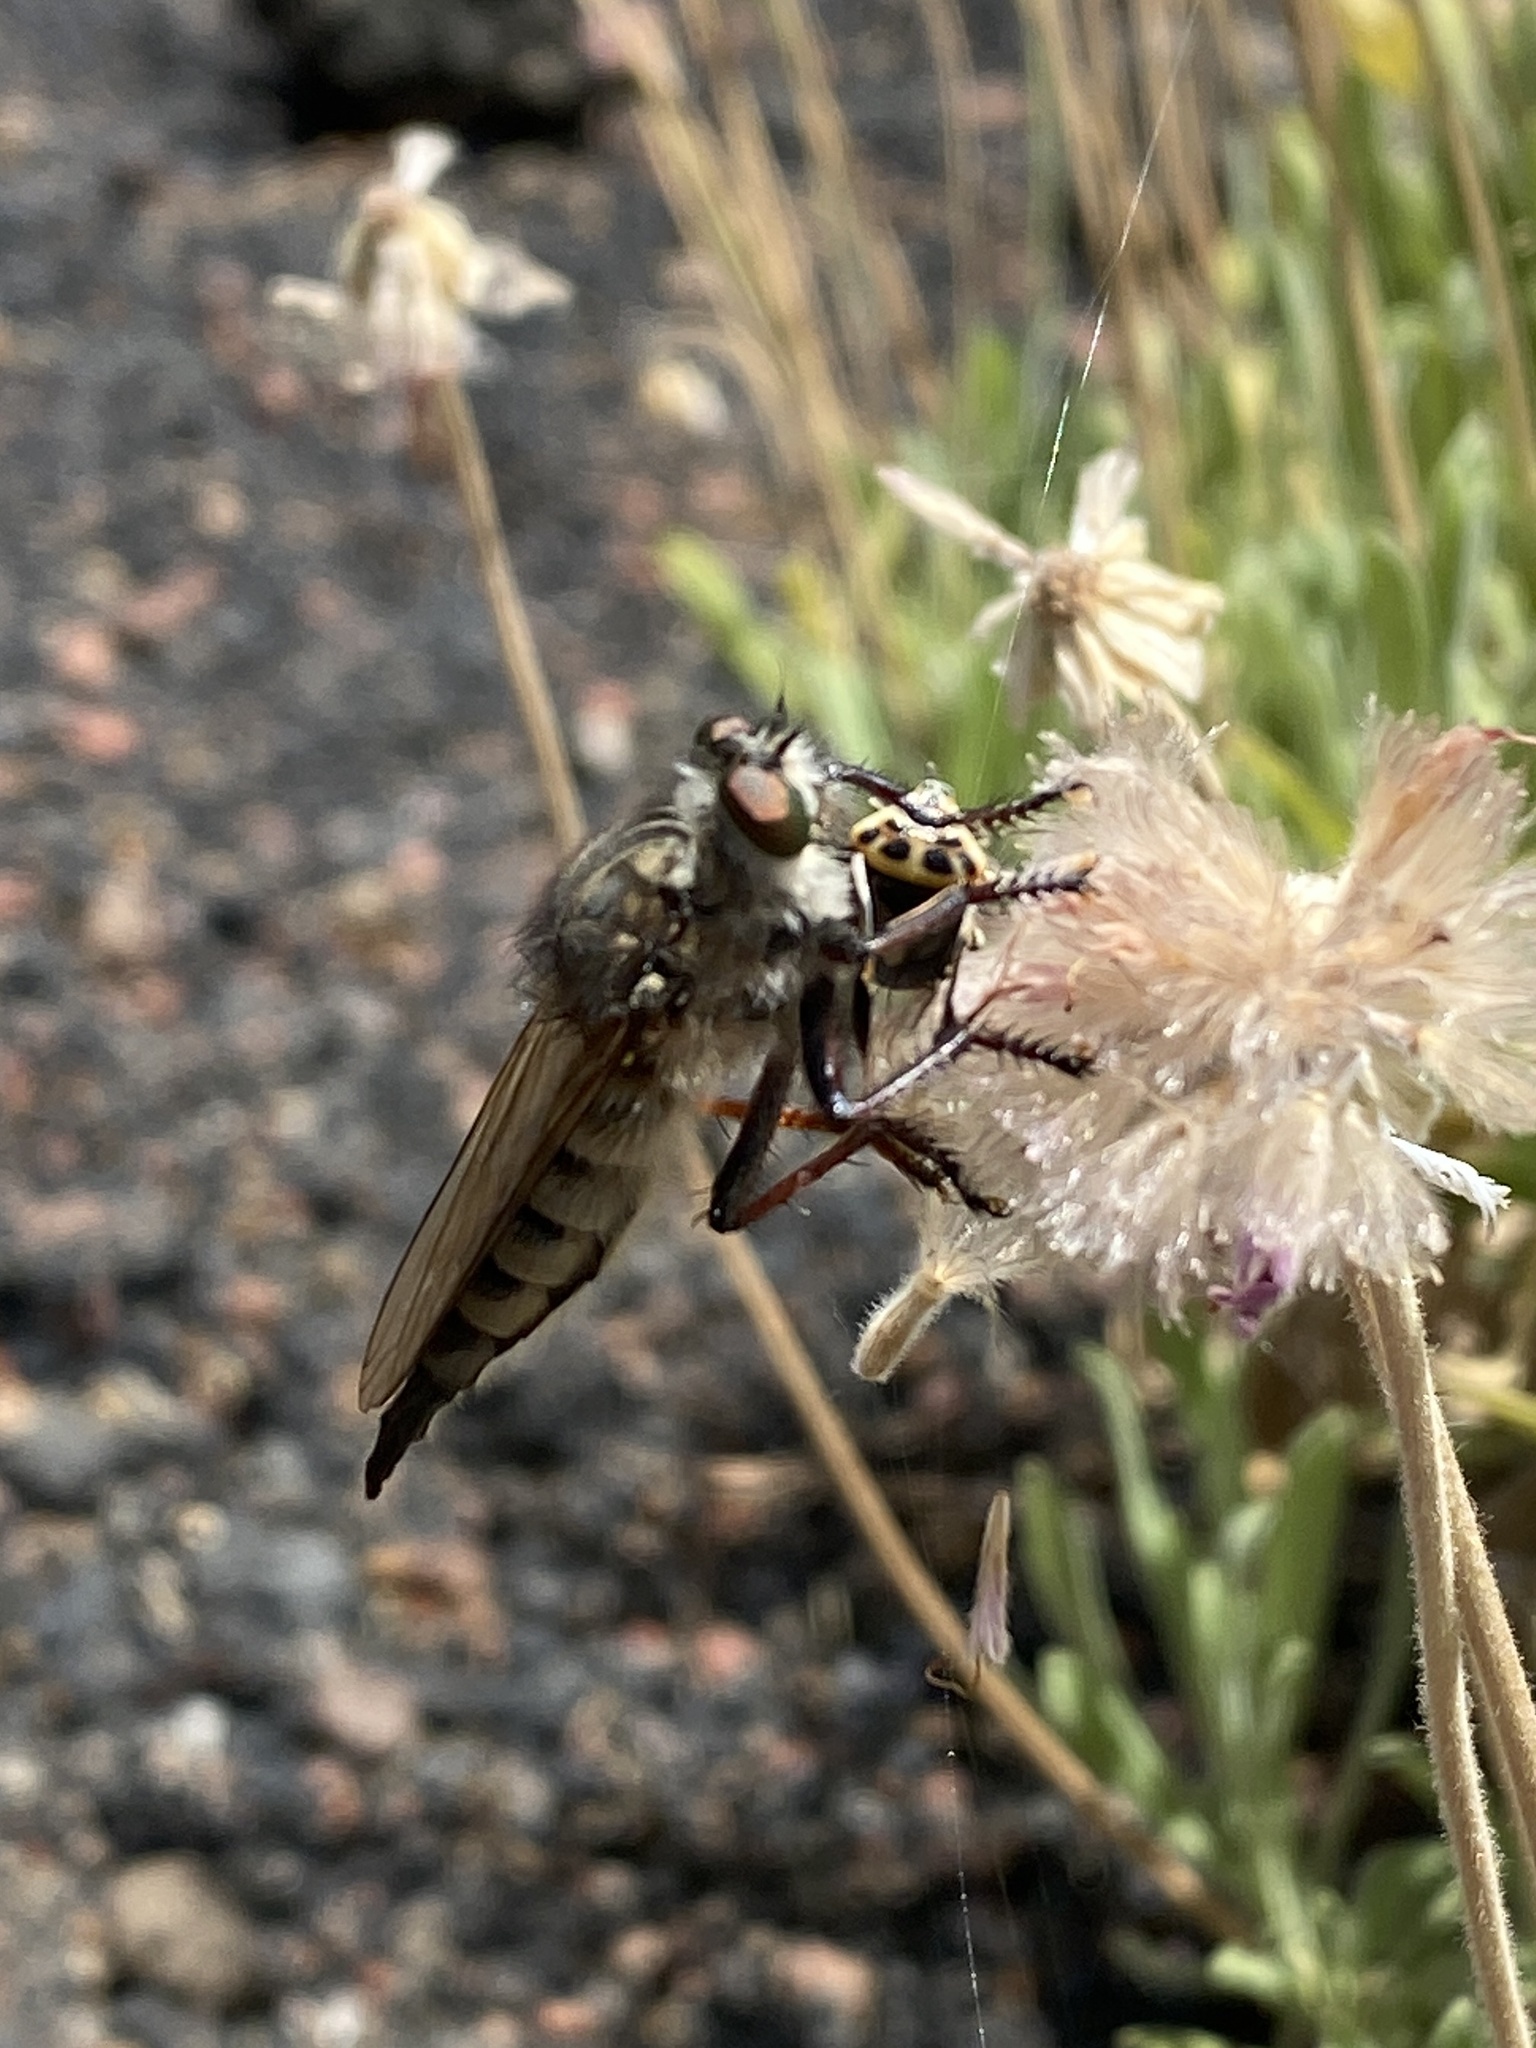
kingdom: Animalia
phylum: Arthropoda
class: Insecta
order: Diptera
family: Asilidae
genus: Promachus
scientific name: Promachus palmensis
